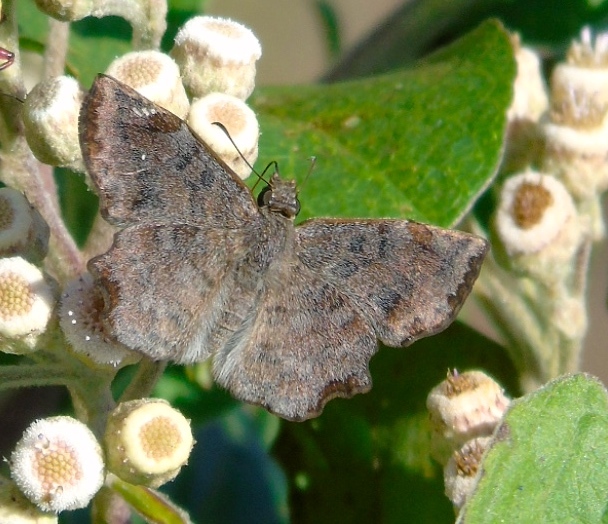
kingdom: Animalia
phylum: Arthropoda
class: Insecta
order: Lepidoptera
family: Hesperiidae
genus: Antigonus
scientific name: Antigonus erosus
